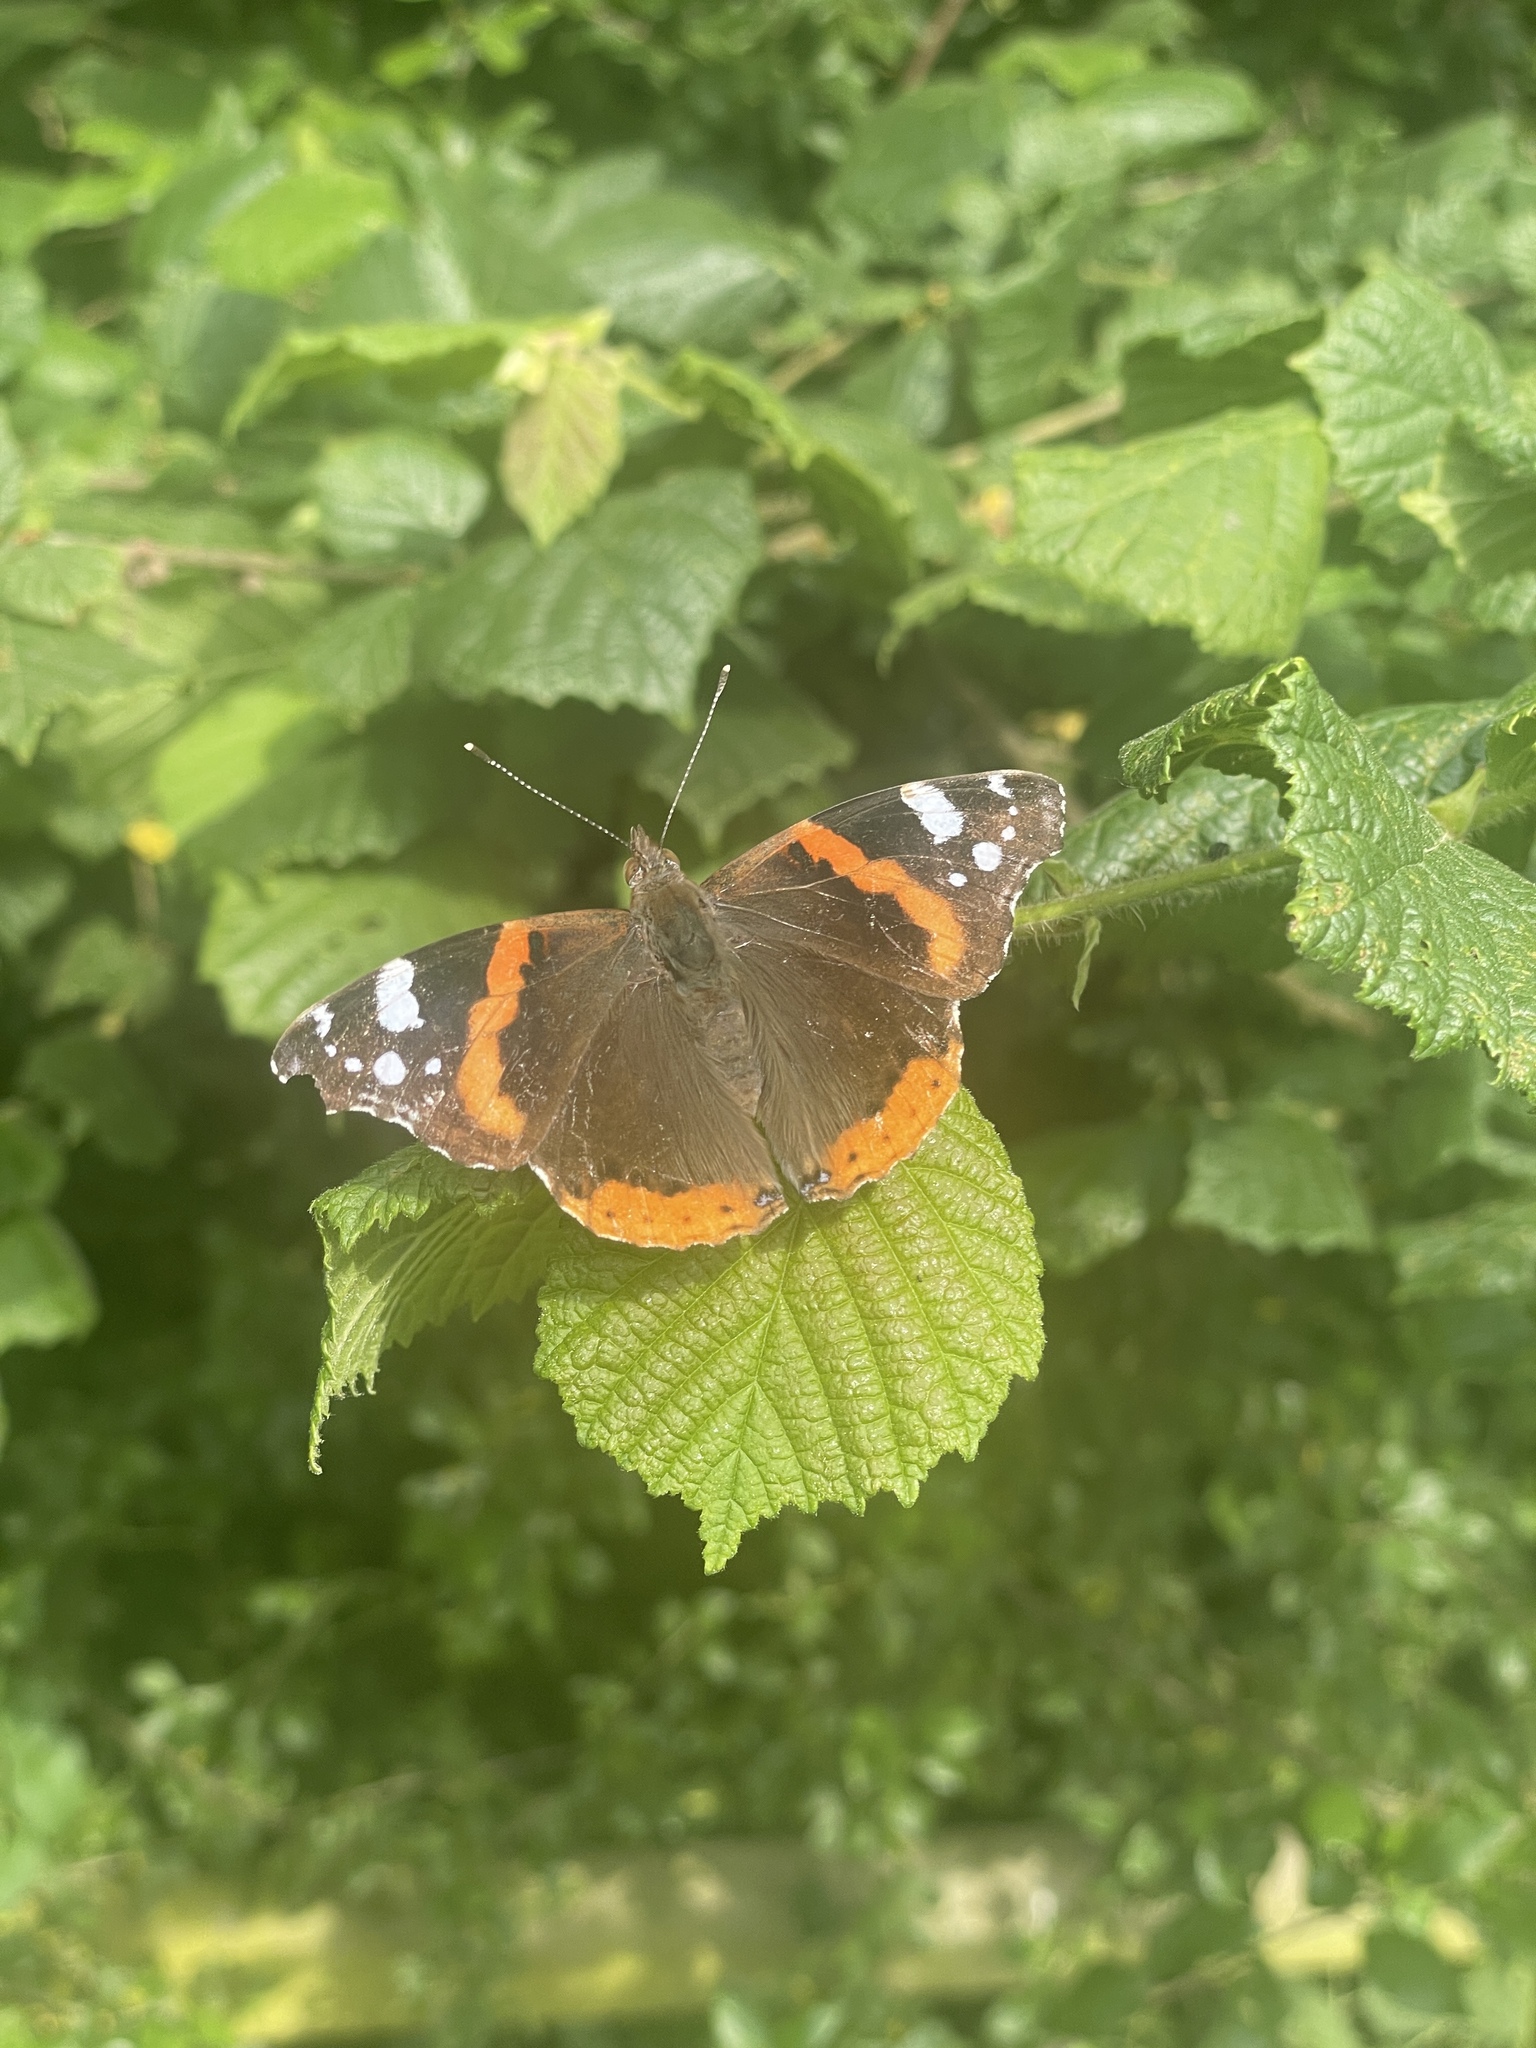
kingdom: Animalia
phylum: Arthropoda
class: Insecta
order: Lepidoptera
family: Nymphalidae
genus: Vanessa
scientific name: Vanessa atalanta
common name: Red admiral
